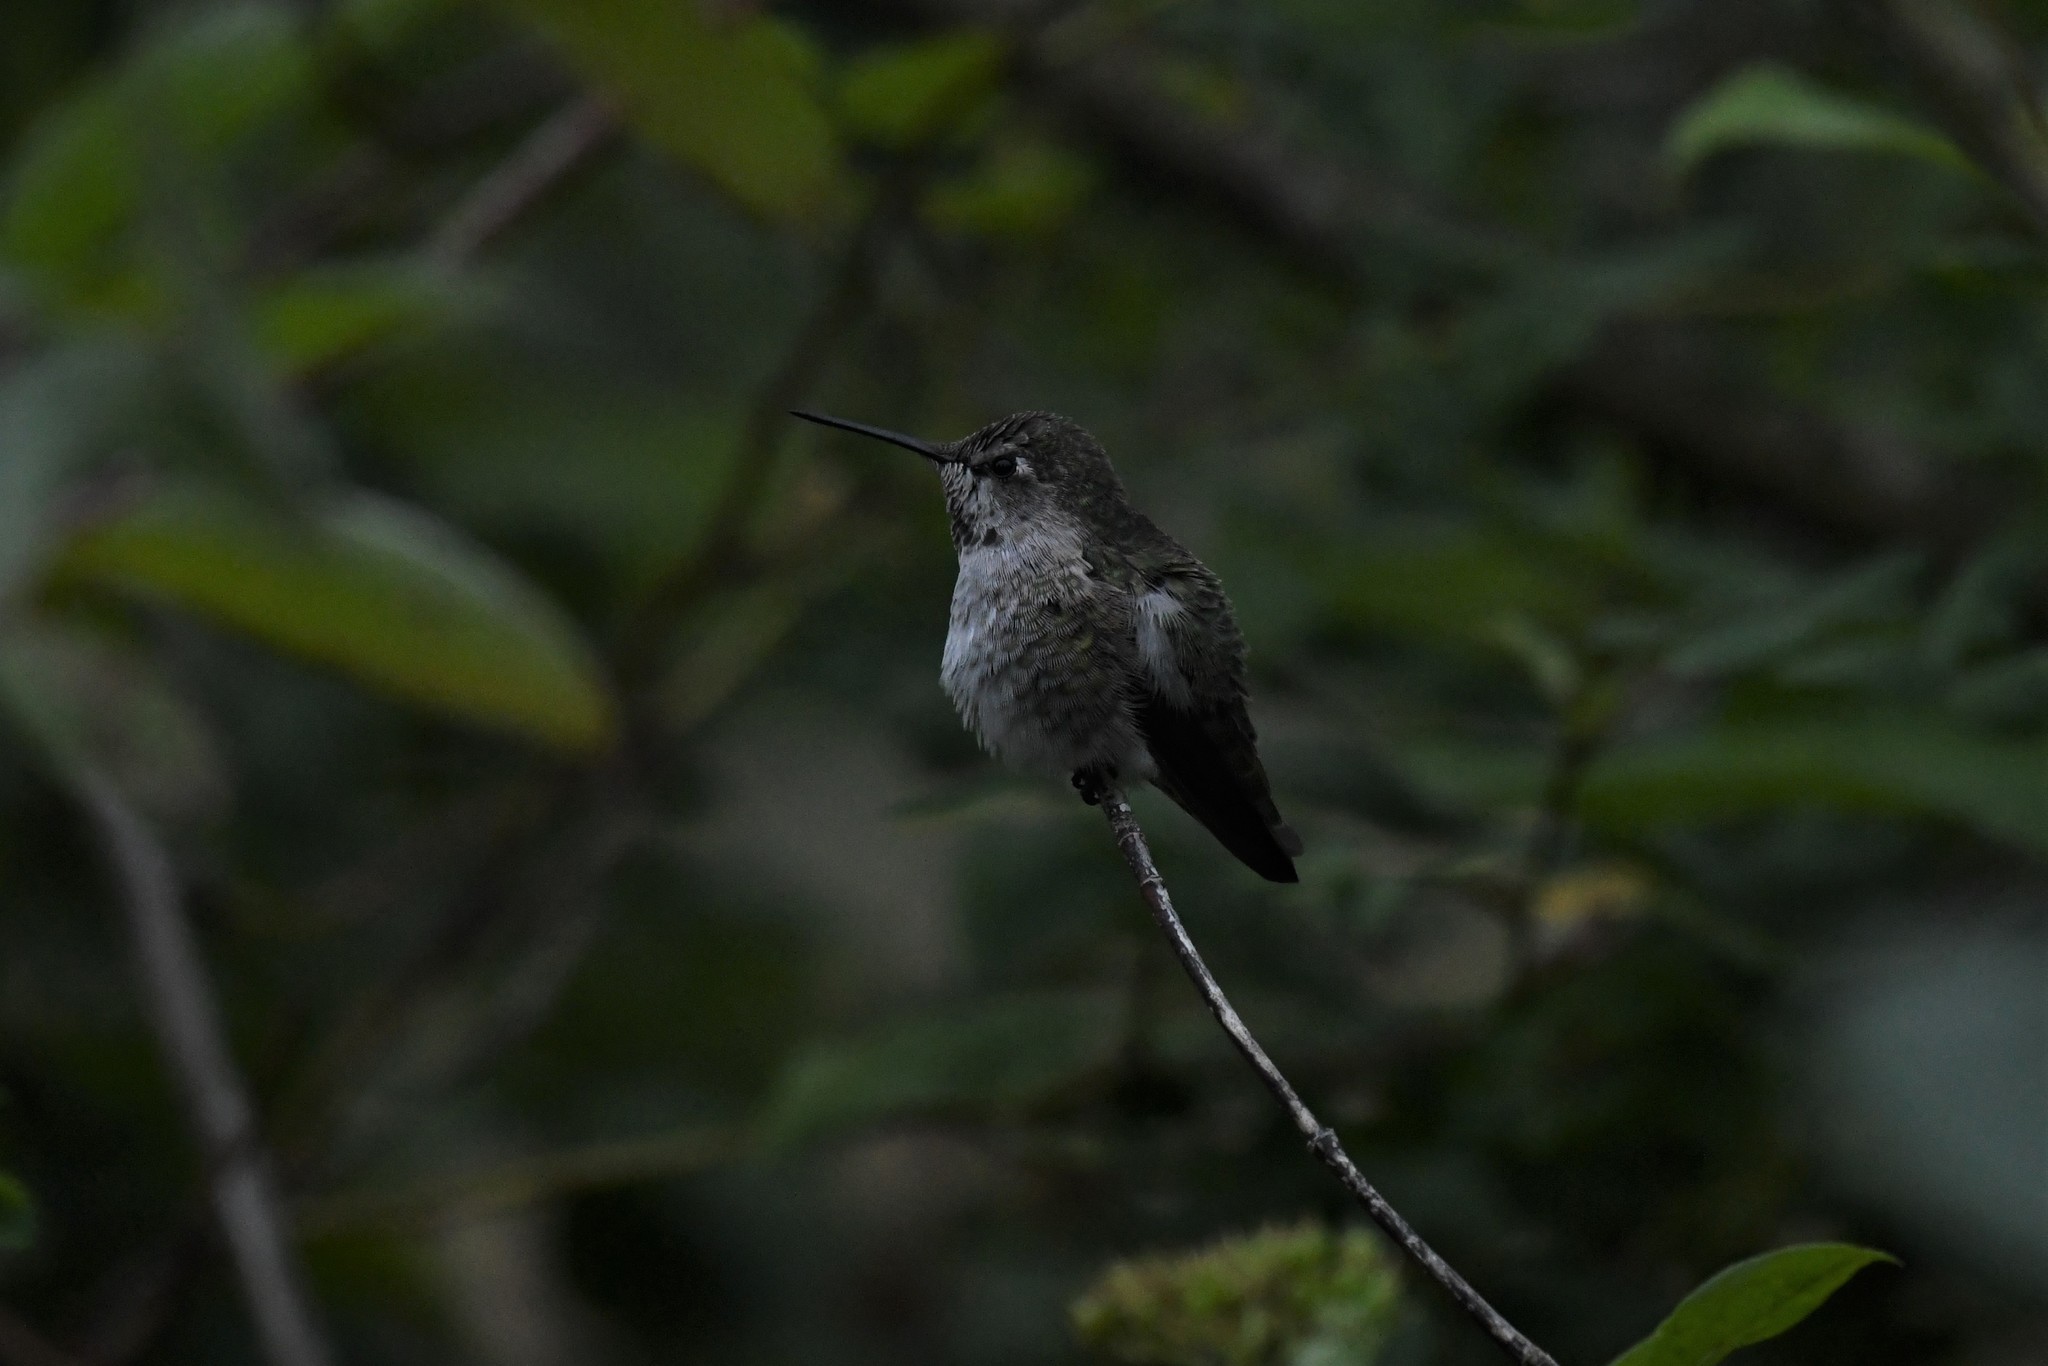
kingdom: Animalia
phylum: Chordata
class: Aves
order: Apodiformes
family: Trochilidae
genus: Calypte
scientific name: Calypte anna
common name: Anna's hummingbird
